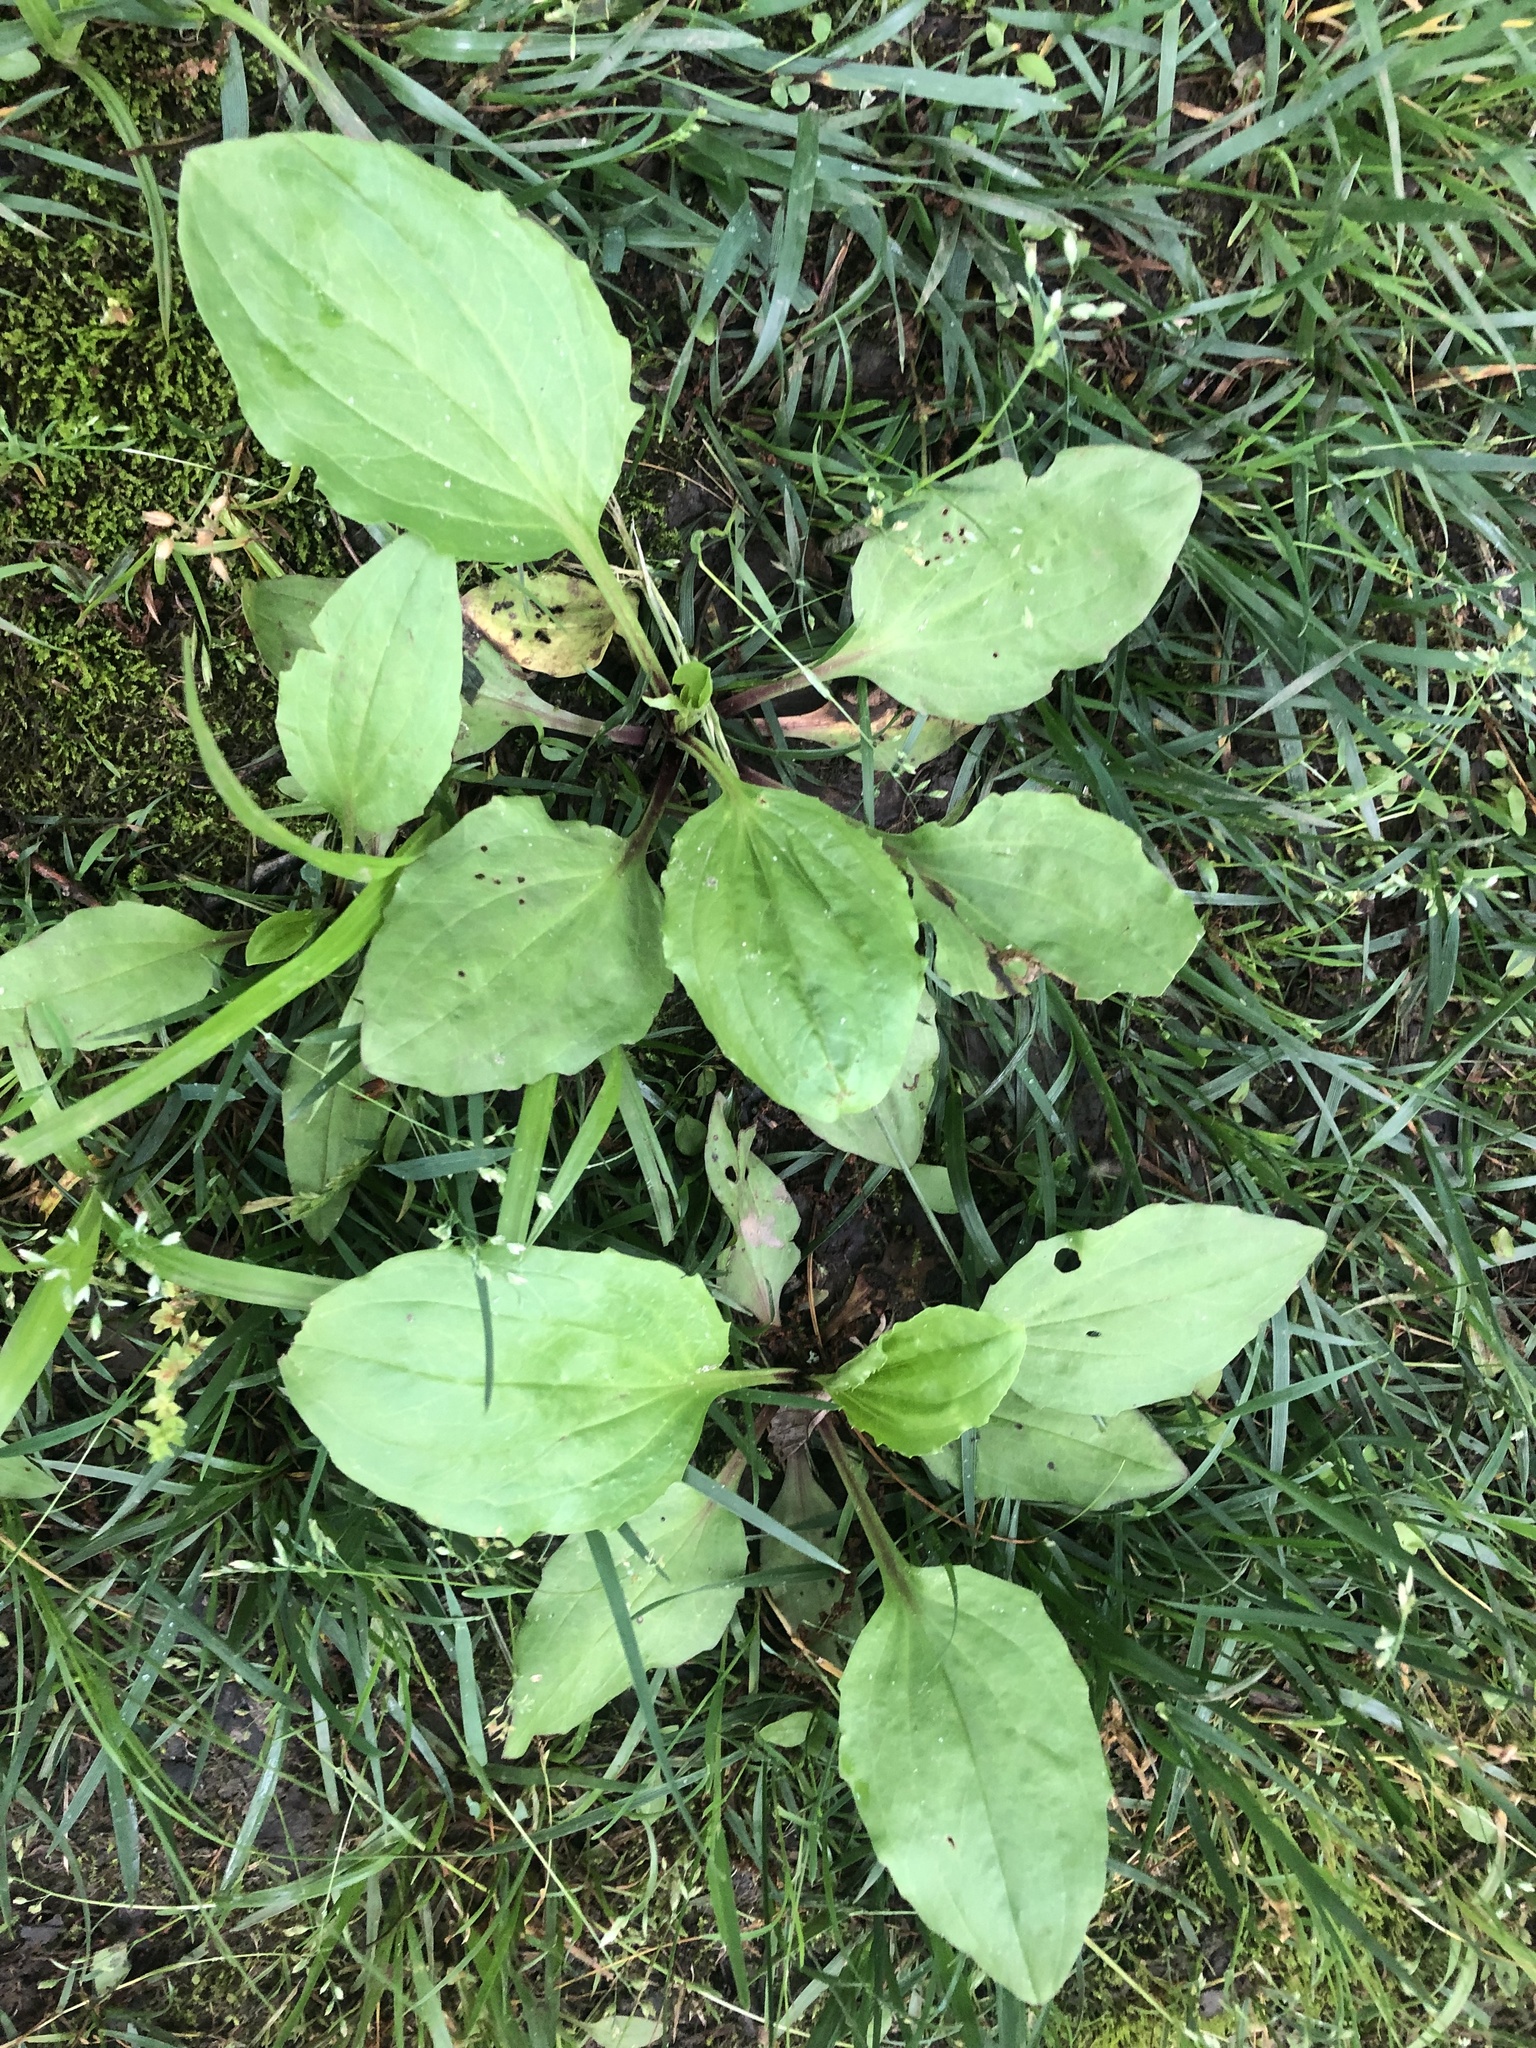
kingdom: Plantae
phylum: Tracheophyta
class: Magnoliopsida
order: Lamiales
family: Plantaginaceae
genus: Plantago
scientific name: Plantago rugelii
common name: American plantain
